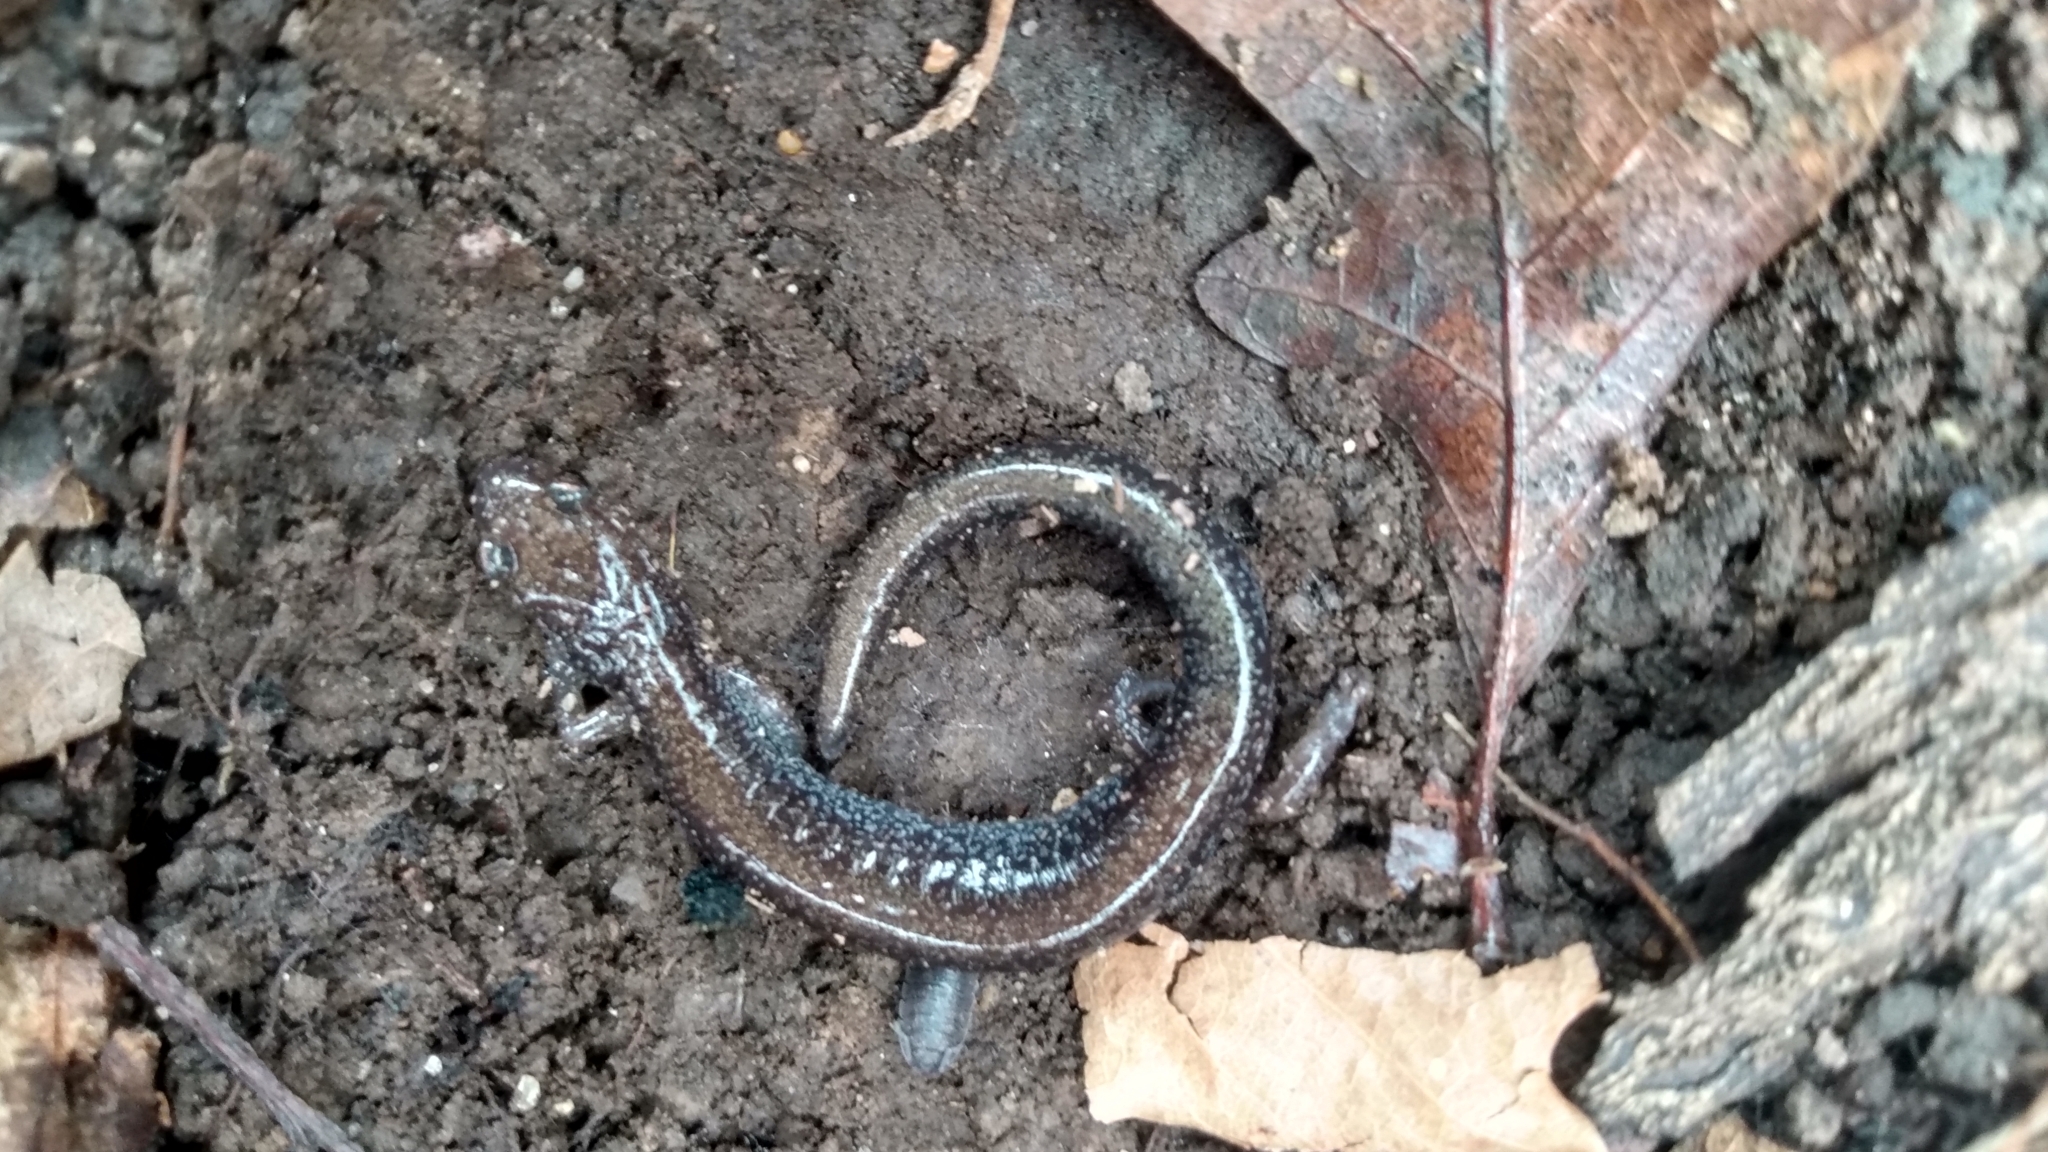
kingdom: Animalia
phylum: Chordata
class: Amphibia
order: Caudata
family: Plethodontidae
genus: Plethodon
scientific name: Plethodon cinereus
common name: Redback salamander
